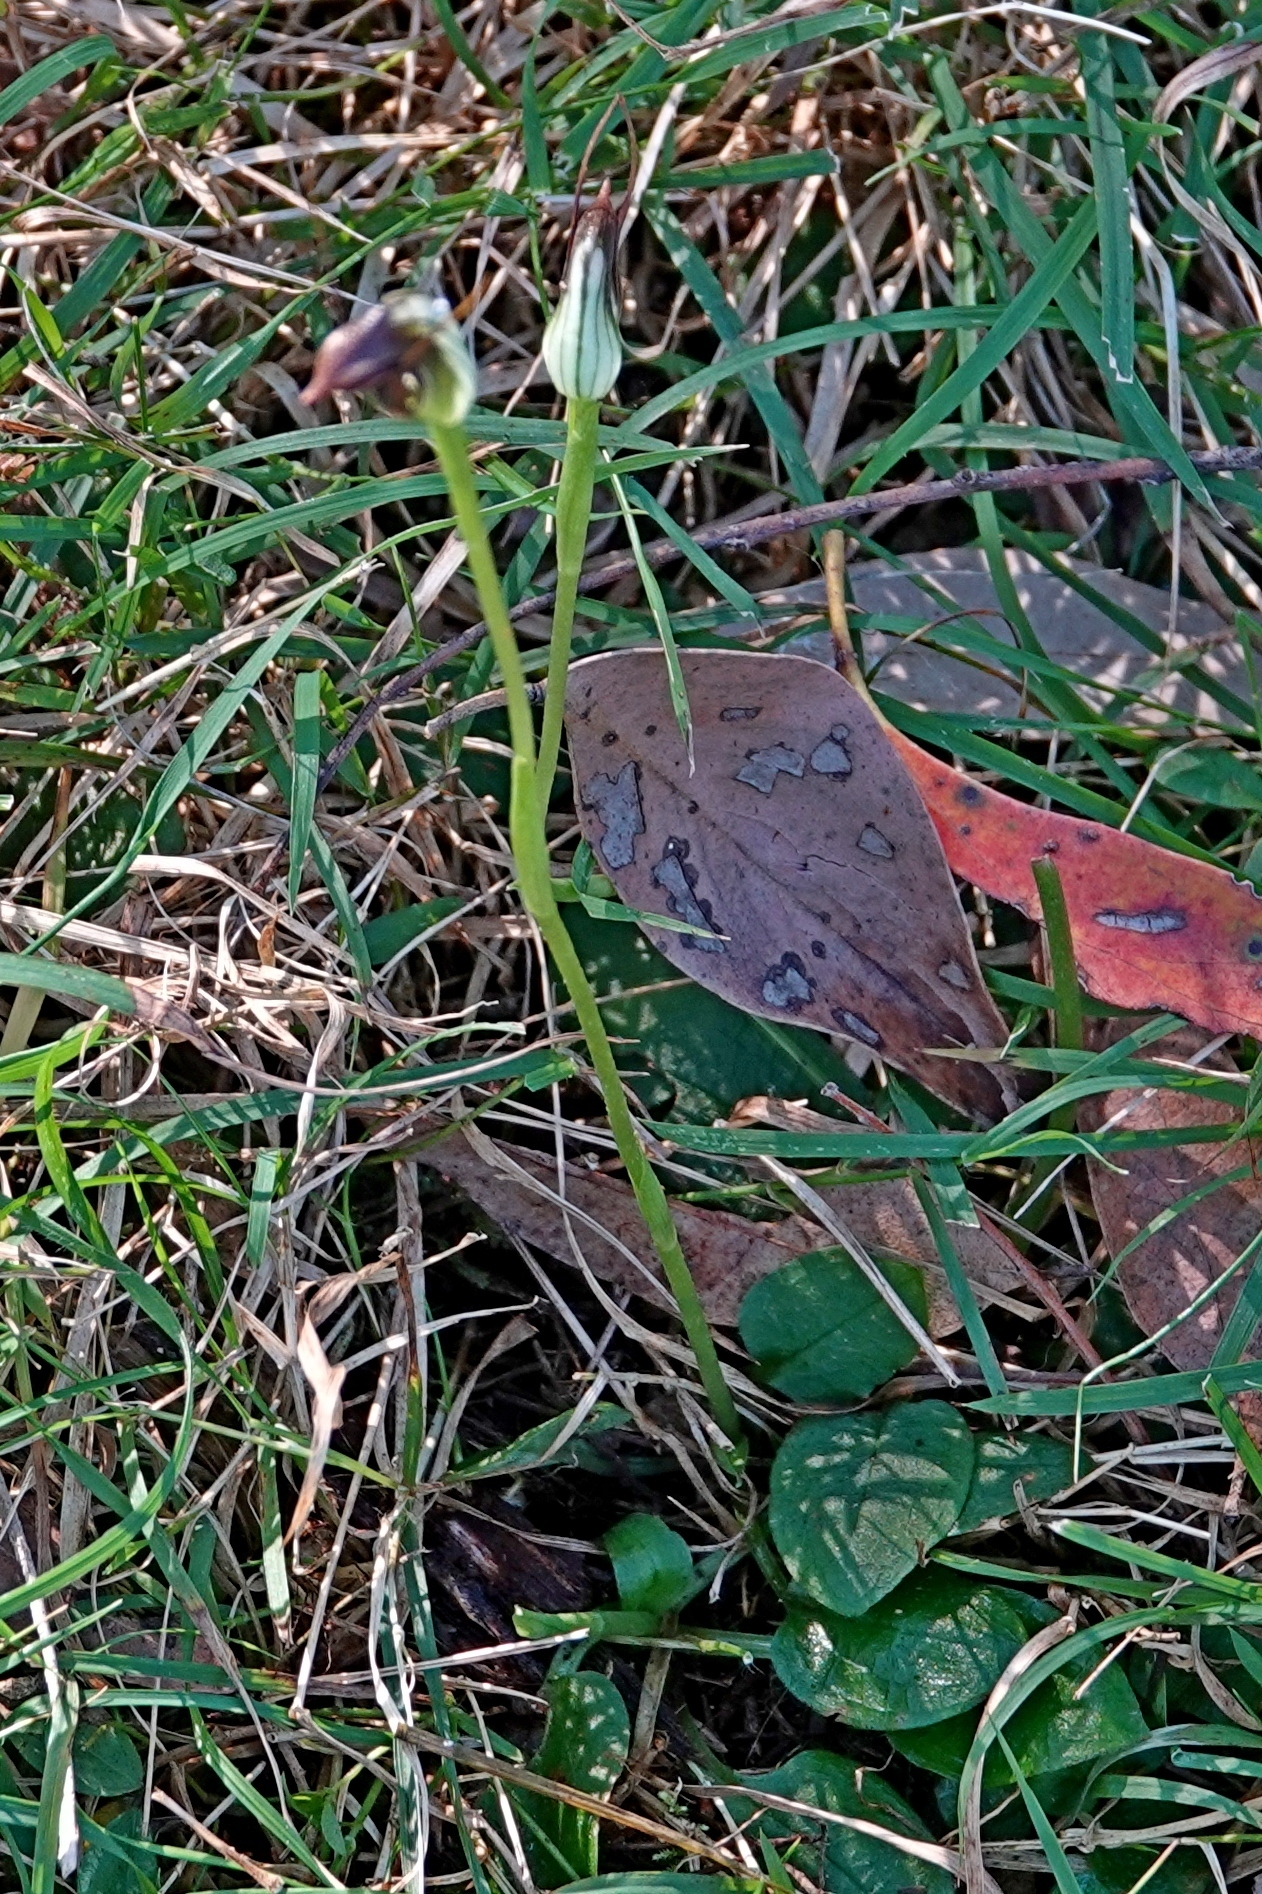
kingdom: Plantae
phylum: Tracheophyta
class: Liliopsida
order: Asparagales
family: Orchidaceae
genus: Pterostylis
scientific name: Pterostylis pedunculata
